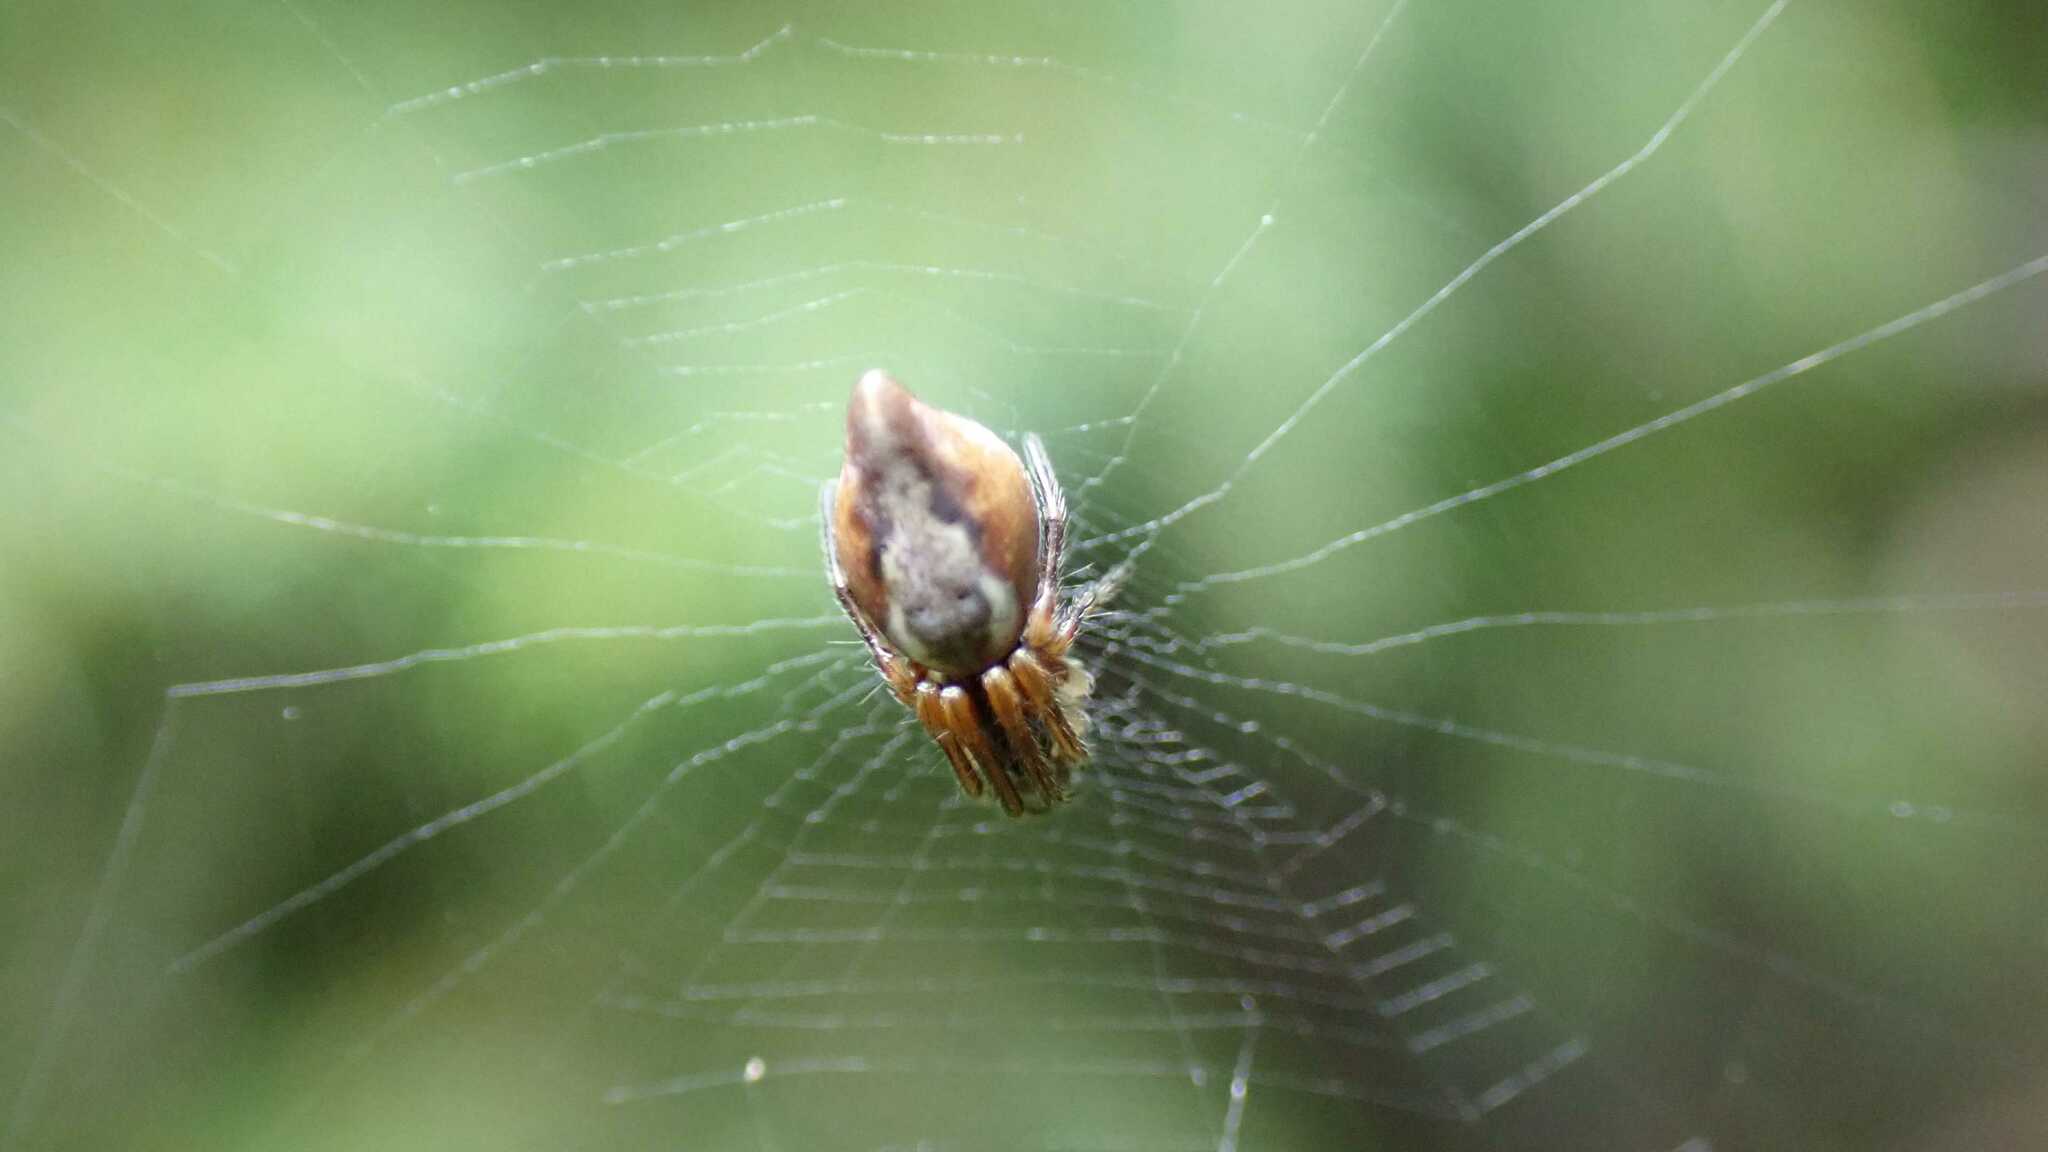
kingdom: Animalia
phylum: Arthropoda
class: Arachnida
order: Araneae
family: Araneidae
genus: Cyclosa
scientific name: Cyclosa conica
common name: Conical trashline orbweaver
